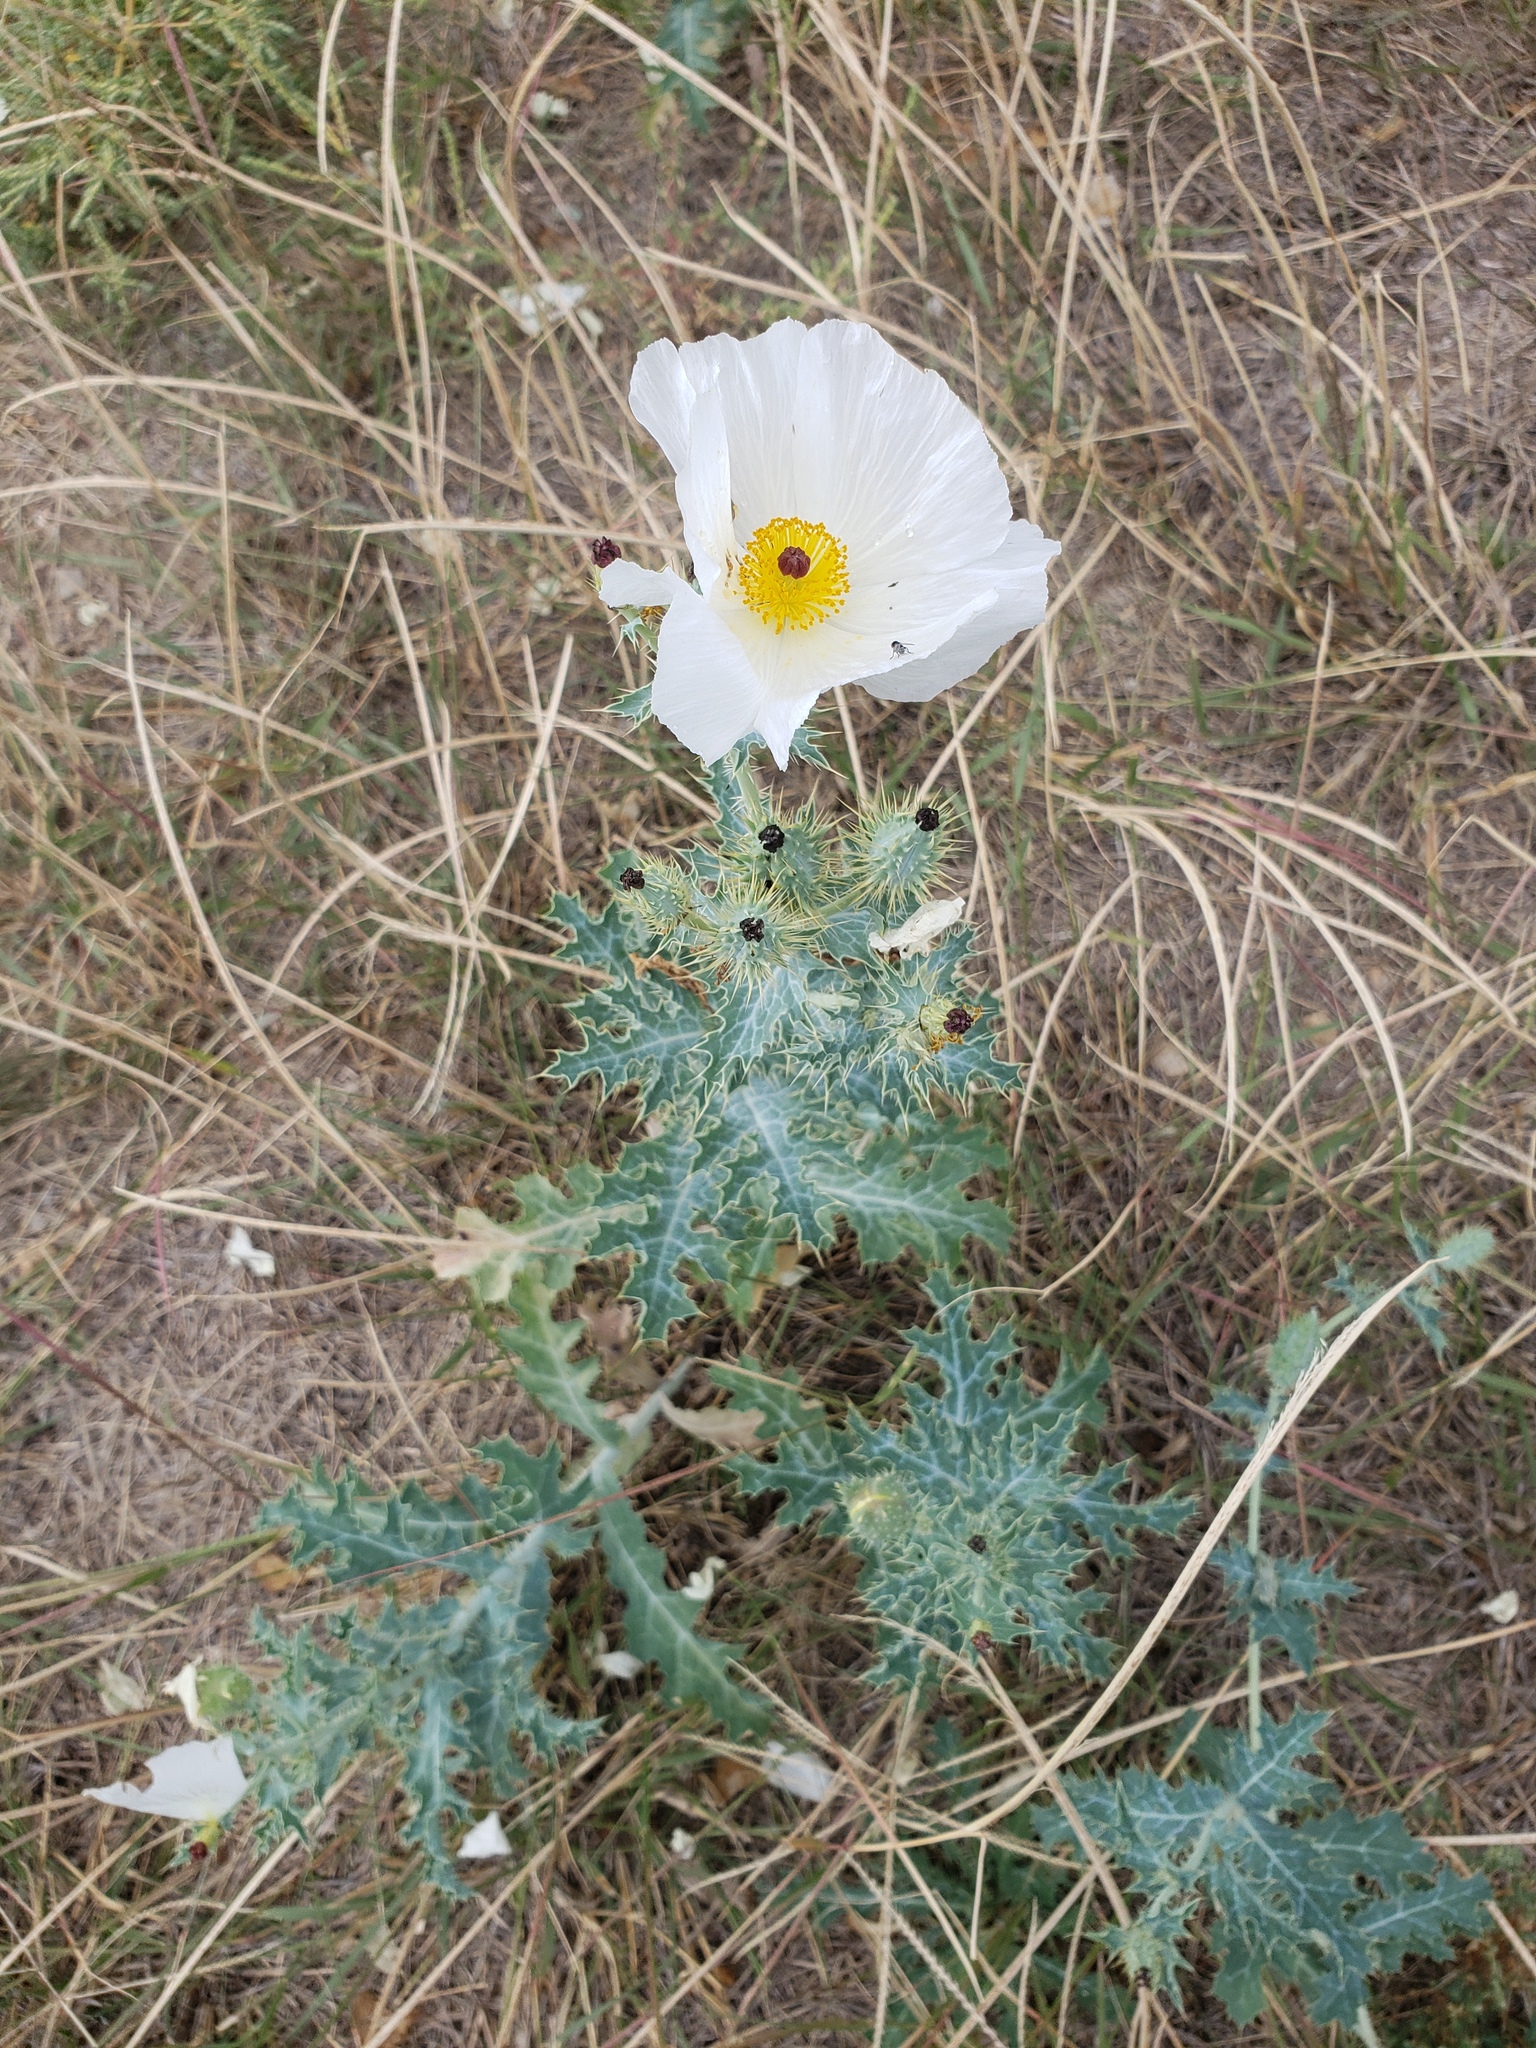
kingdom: Plantae
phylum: Tracheophyta
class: Magnoliopsida
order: Ranunculales
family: Papaveraceae
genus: Argemone
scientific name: Argemone polyanthemos
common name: Plains prickly-poppy
